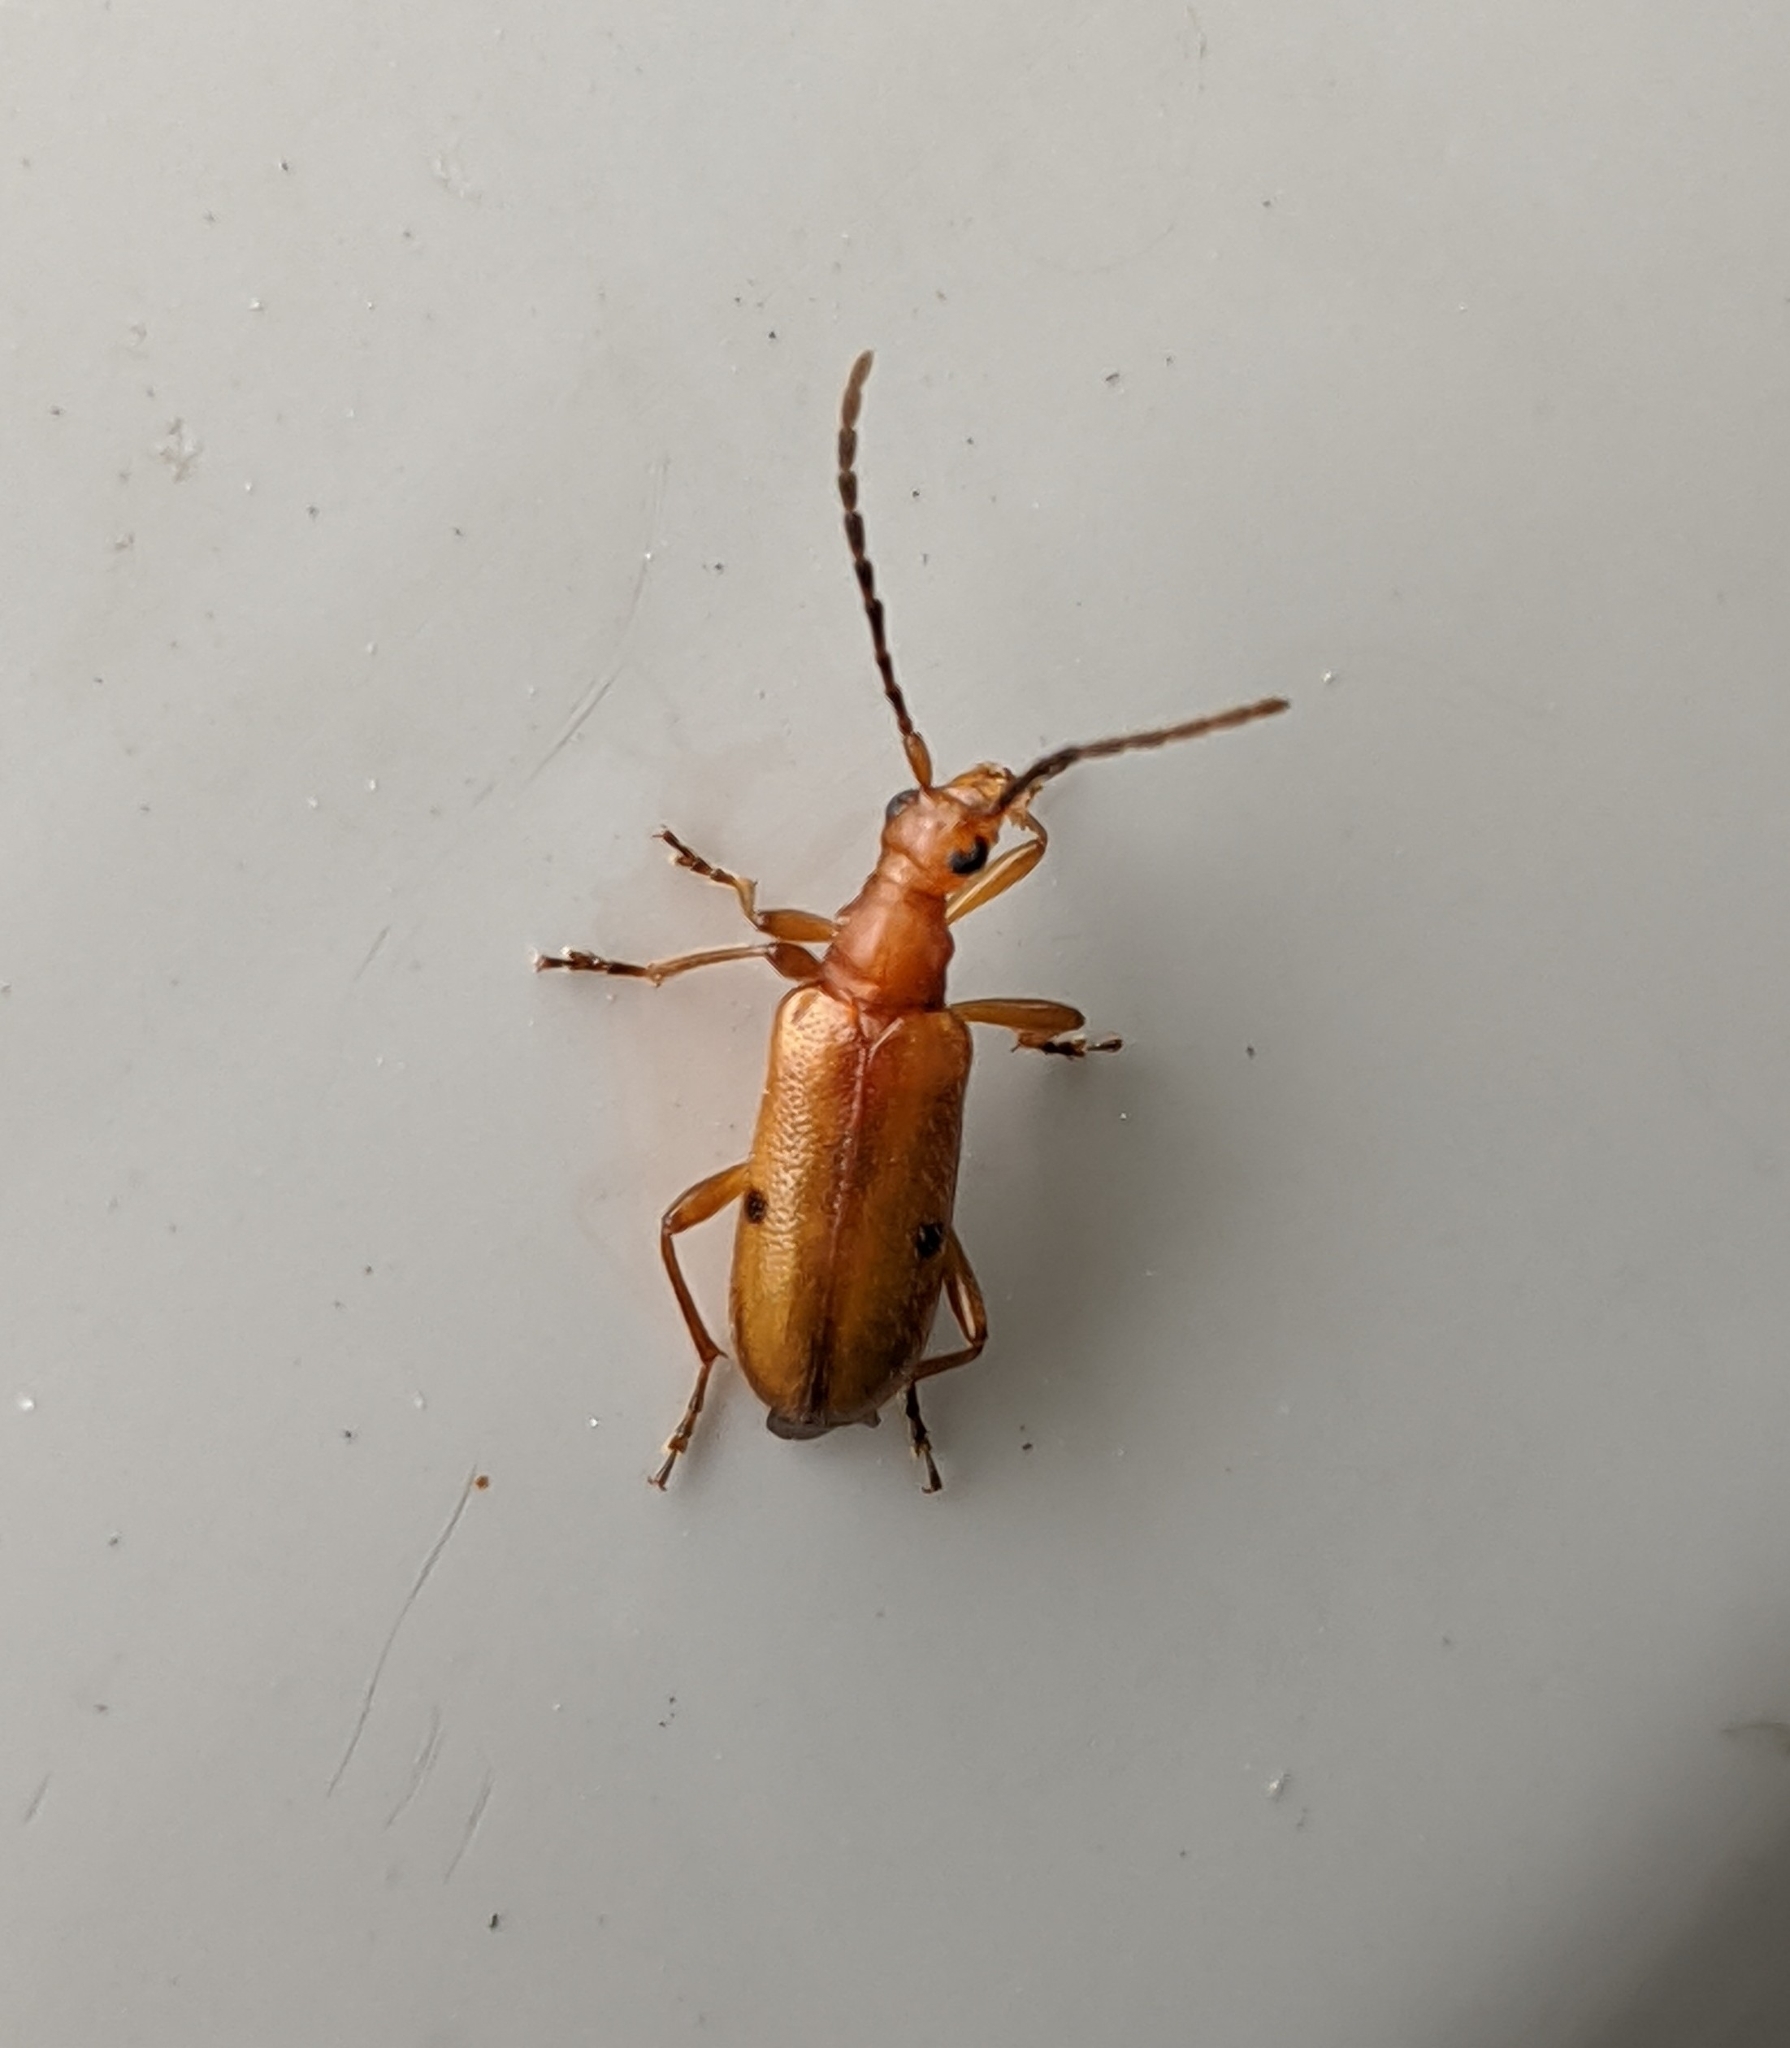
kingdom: Animalia
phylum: Arthropoda
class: Insecta
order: Coleoptera
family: Cerambycidae
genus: Pidonia
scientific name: Pidonia quadrata
